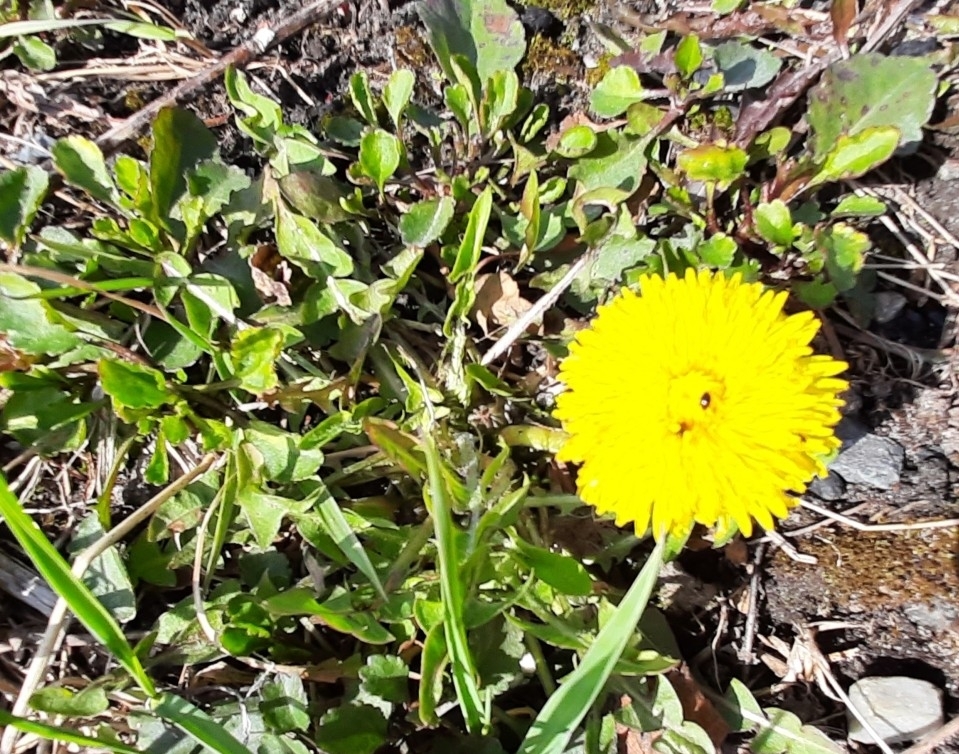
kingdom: Plantae
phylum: Tracheophyta
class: Magnoliopsida
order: Asterales
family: Asteraceae
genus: Taraxacum
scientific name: Taraxacum officinale
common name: Common dandelion
